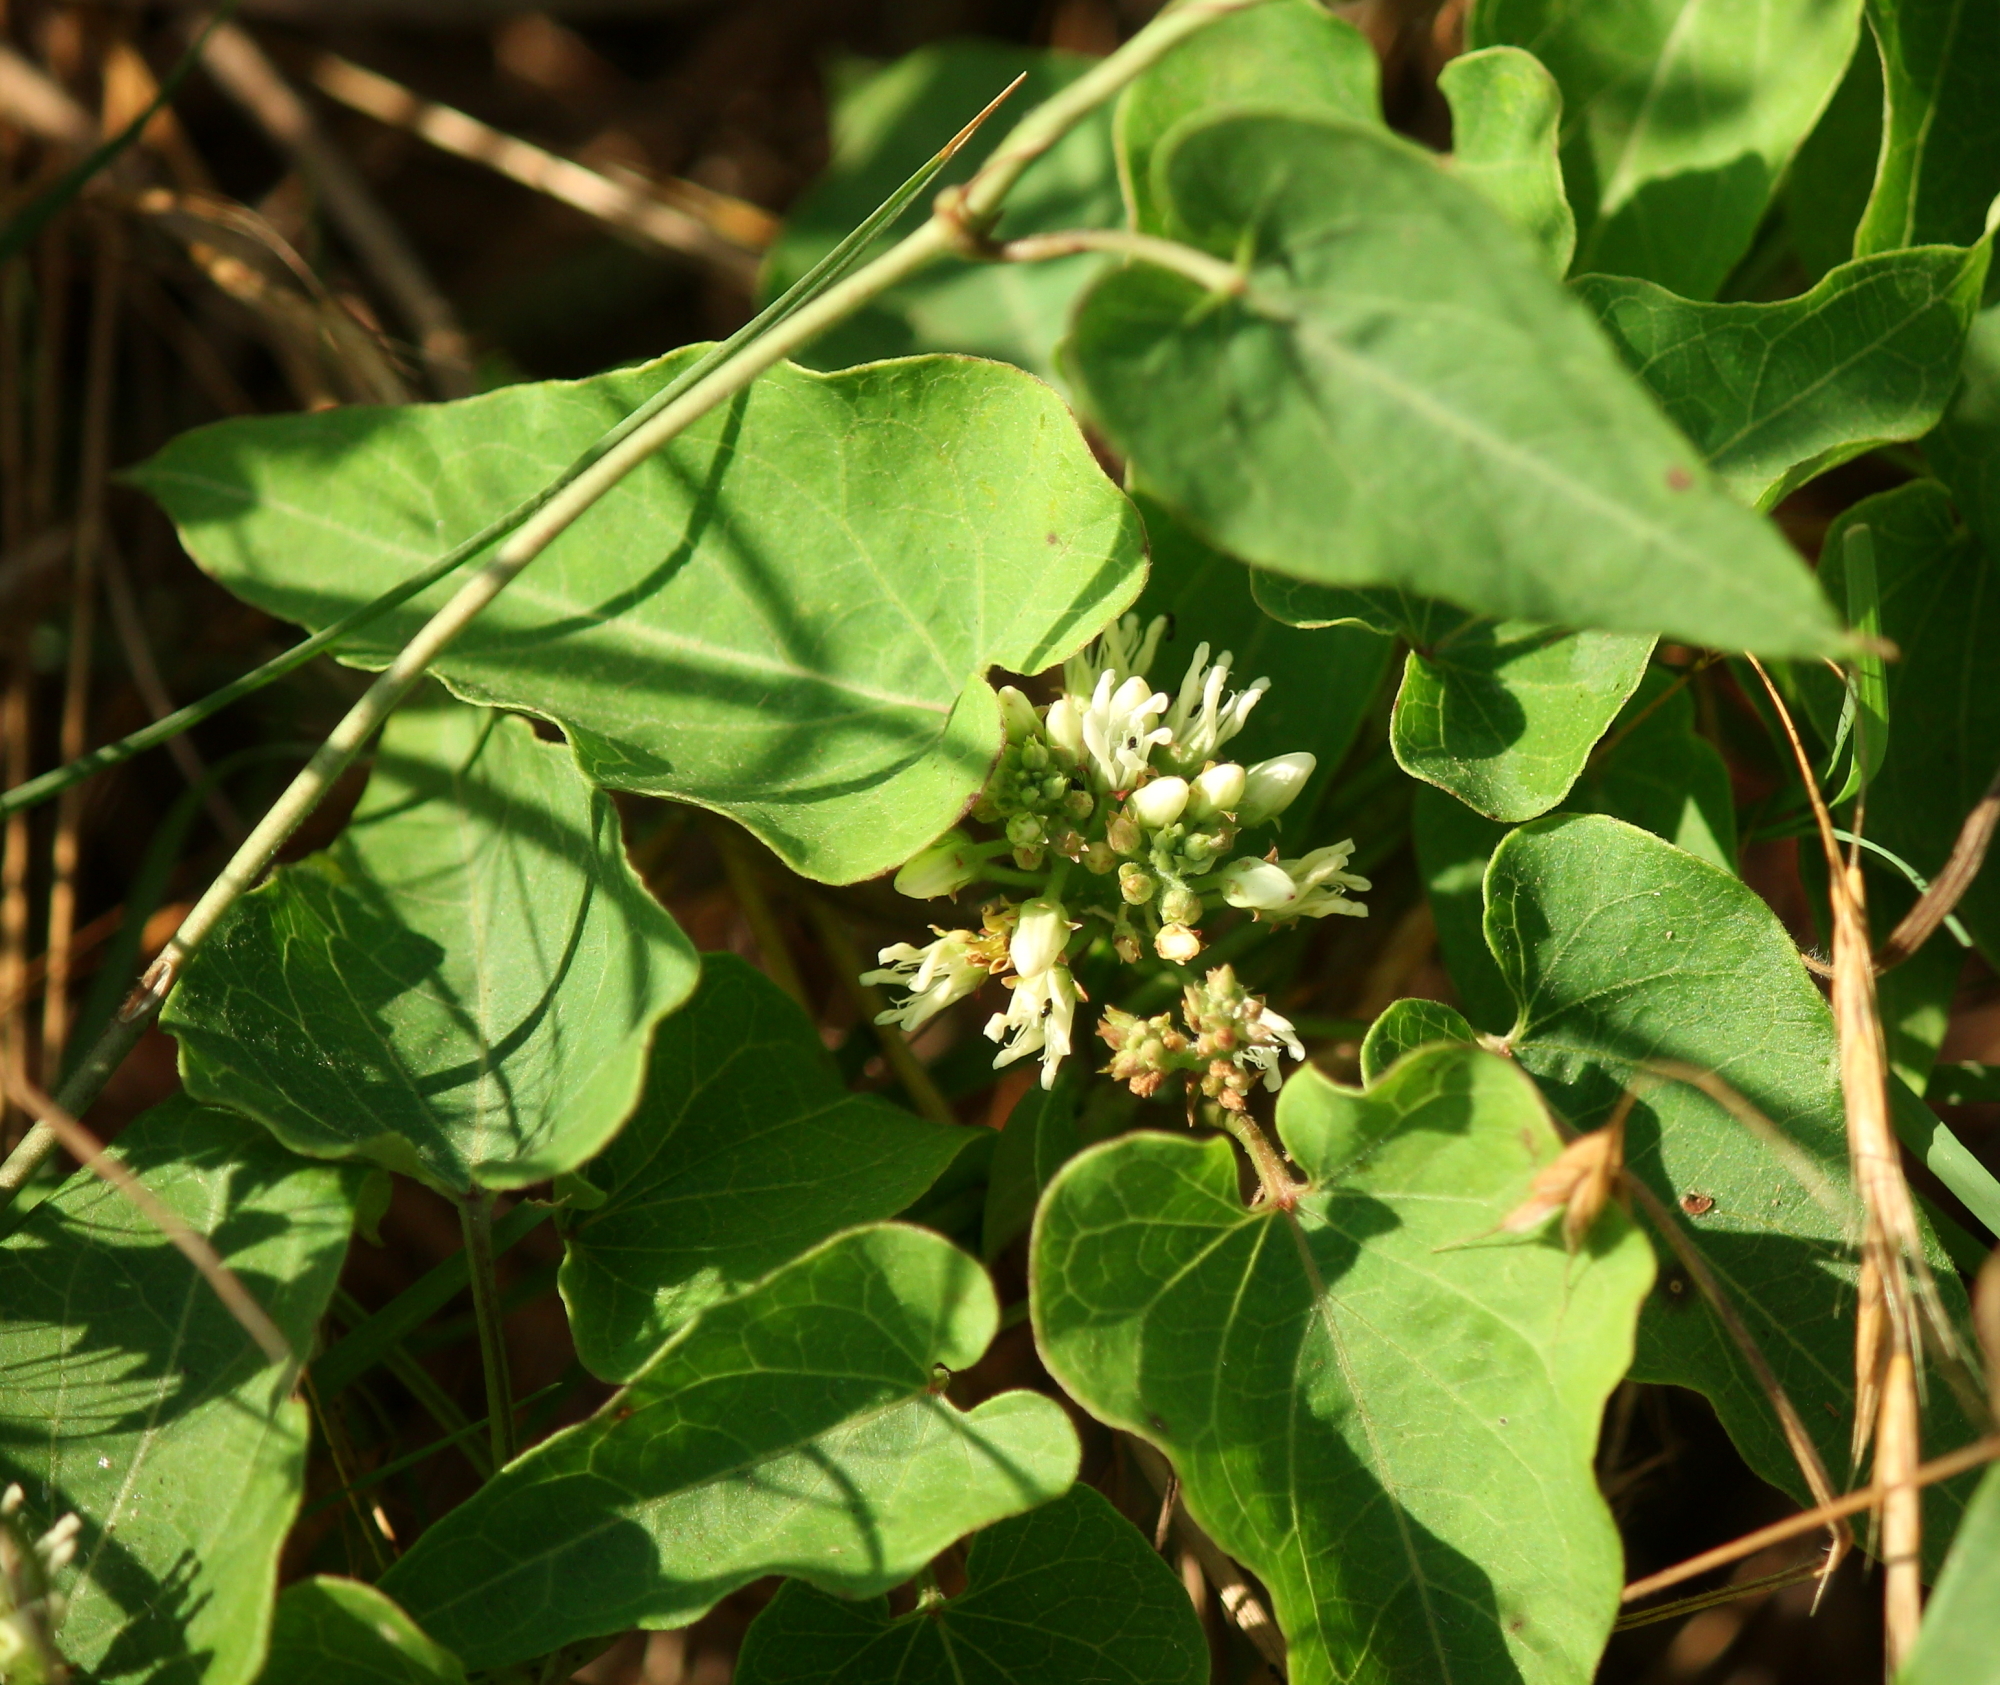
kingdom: Plantae
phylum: Tracheophyta
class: Magnoliopsida
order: Gentianales
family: Apocynaceae
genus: Cynanchum
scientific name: Cynanchum laeve
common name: Sandvine
